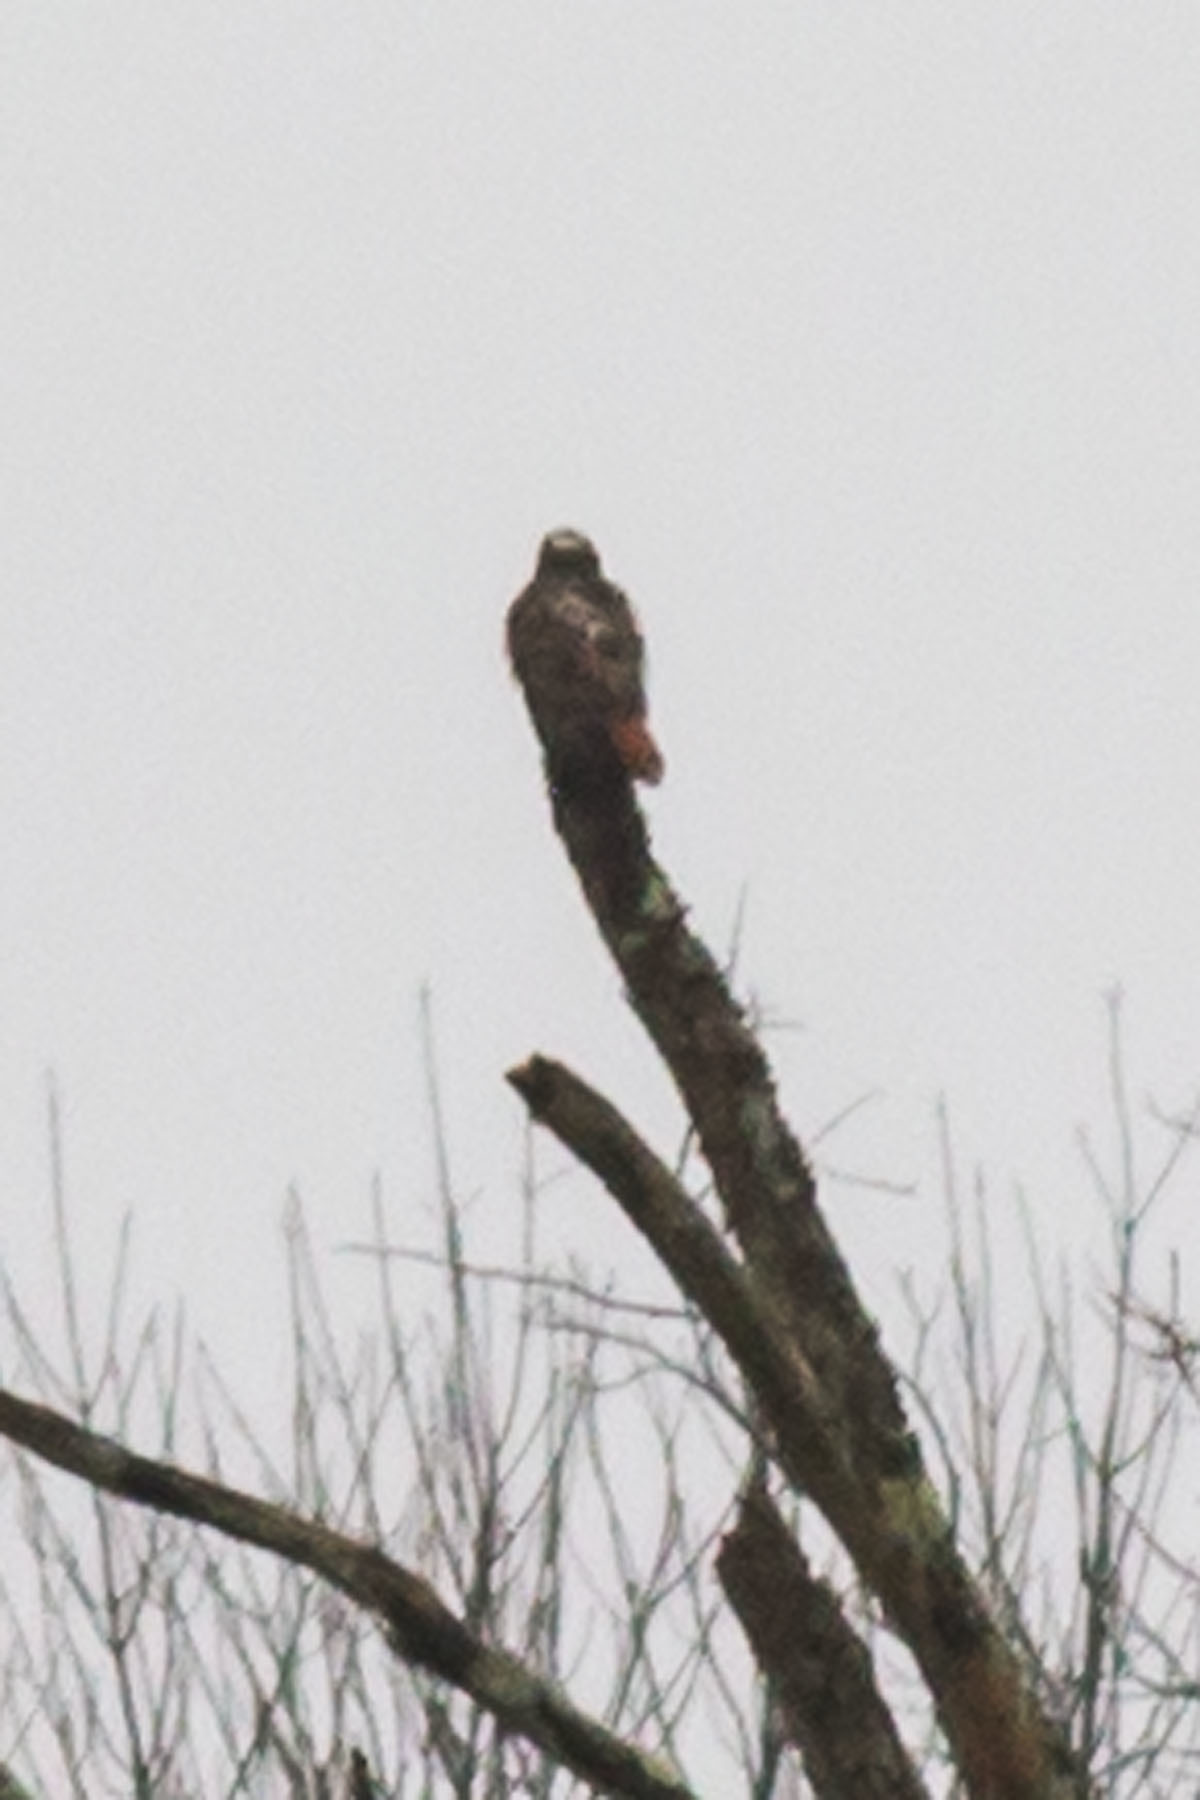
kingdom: Animalia
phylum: Chordata
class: Aves
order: Accipitriformes
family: Accipitridae
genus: Buteo
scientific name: Buteo jamaicensis
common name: Red-tailed hawk
